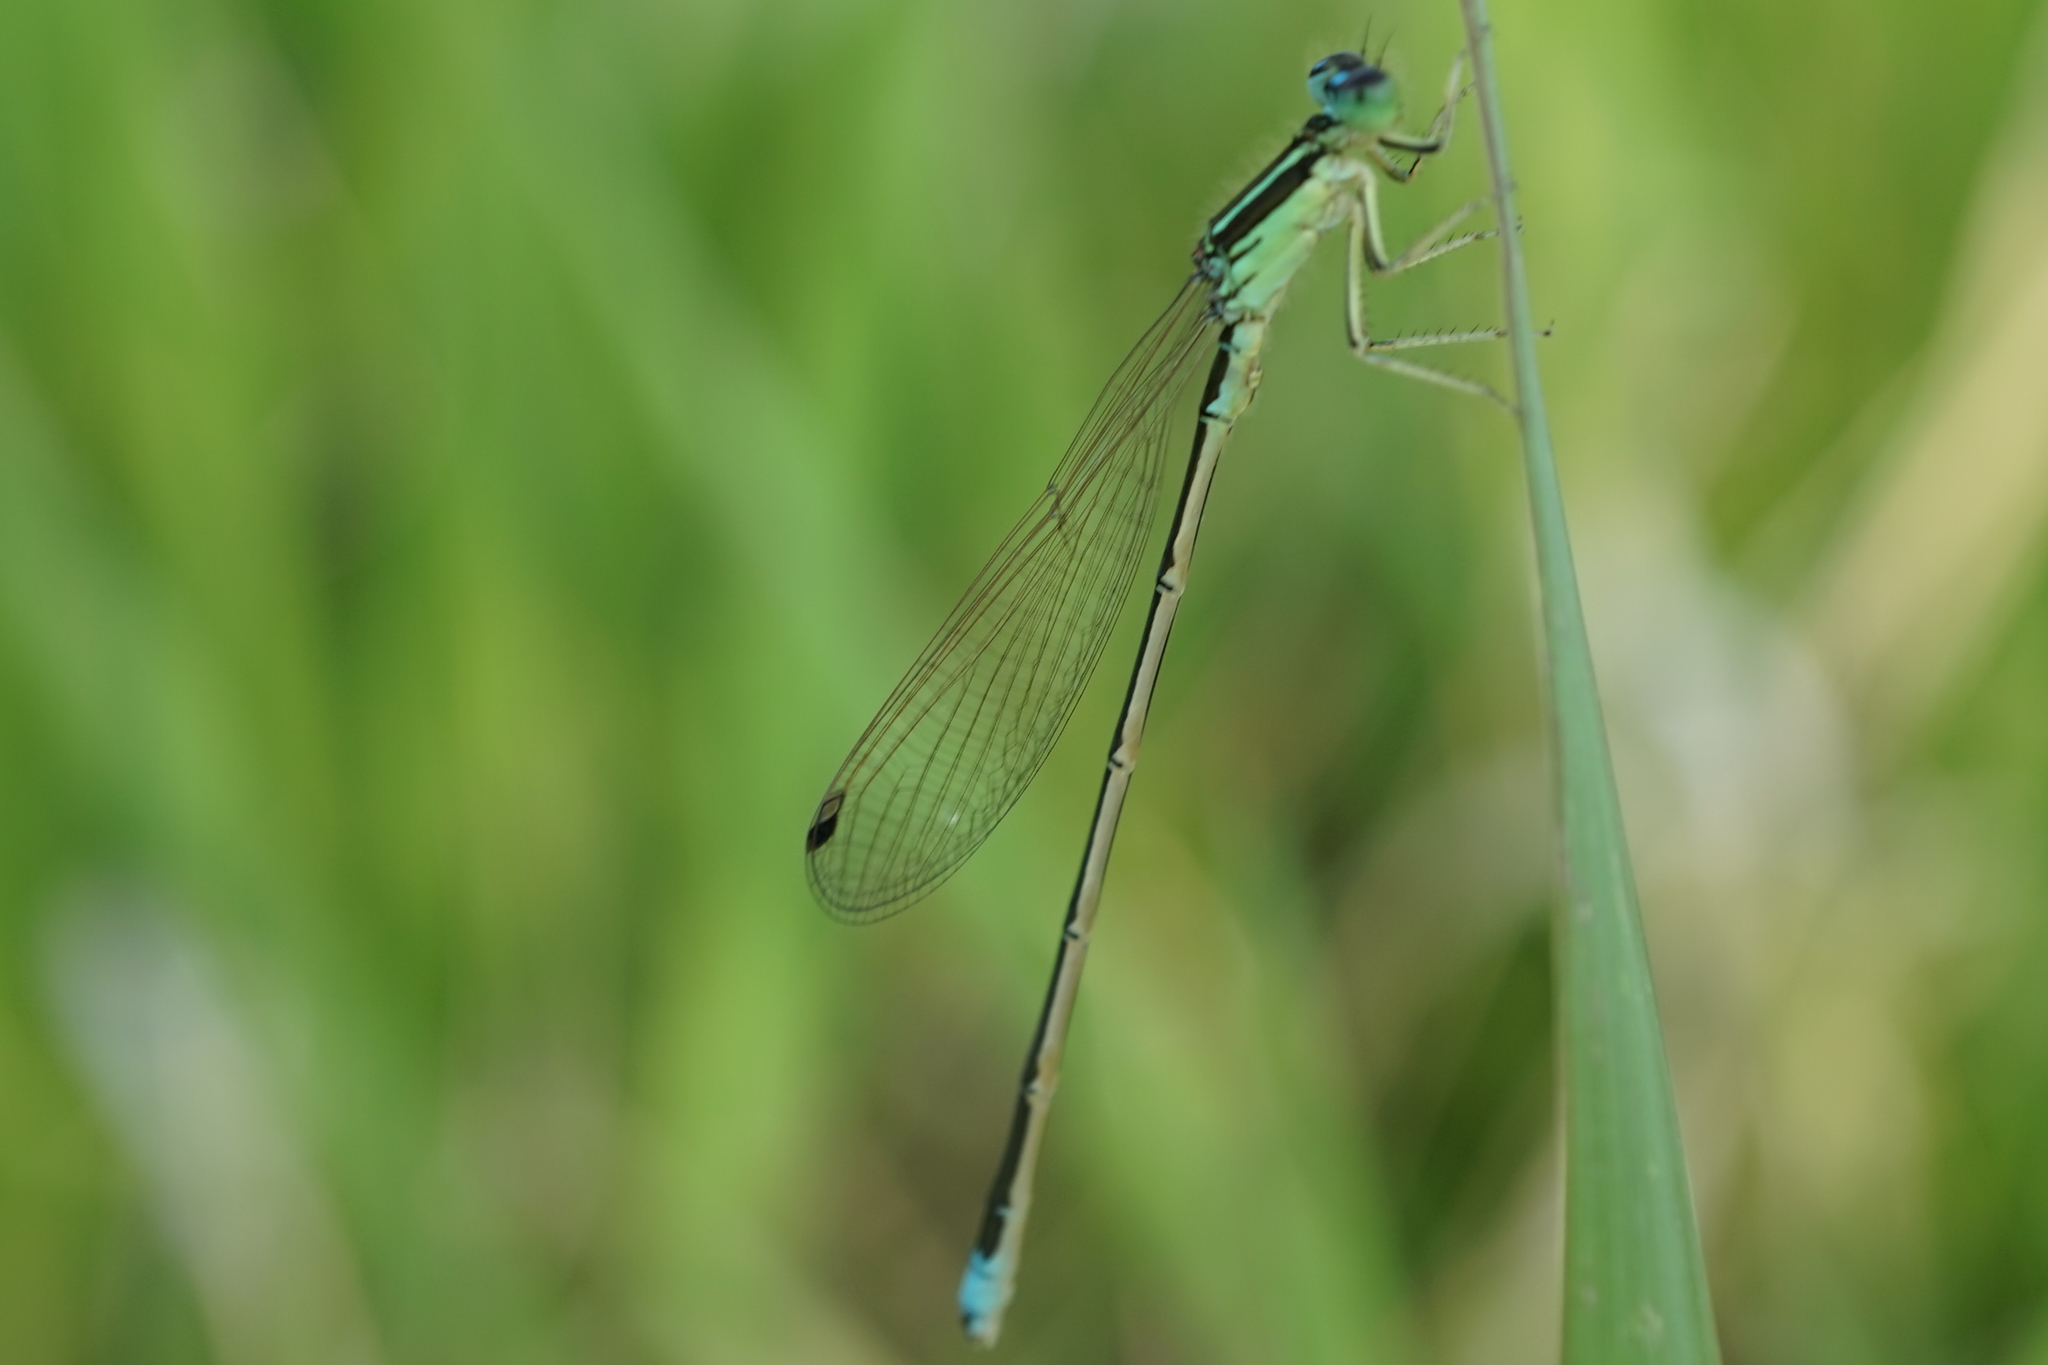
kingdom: Animalia
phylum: Arthropoda
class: Insecta
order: Odonata
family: Coenagrionidae
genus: Ischnura
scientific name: Ischnura asiatica
